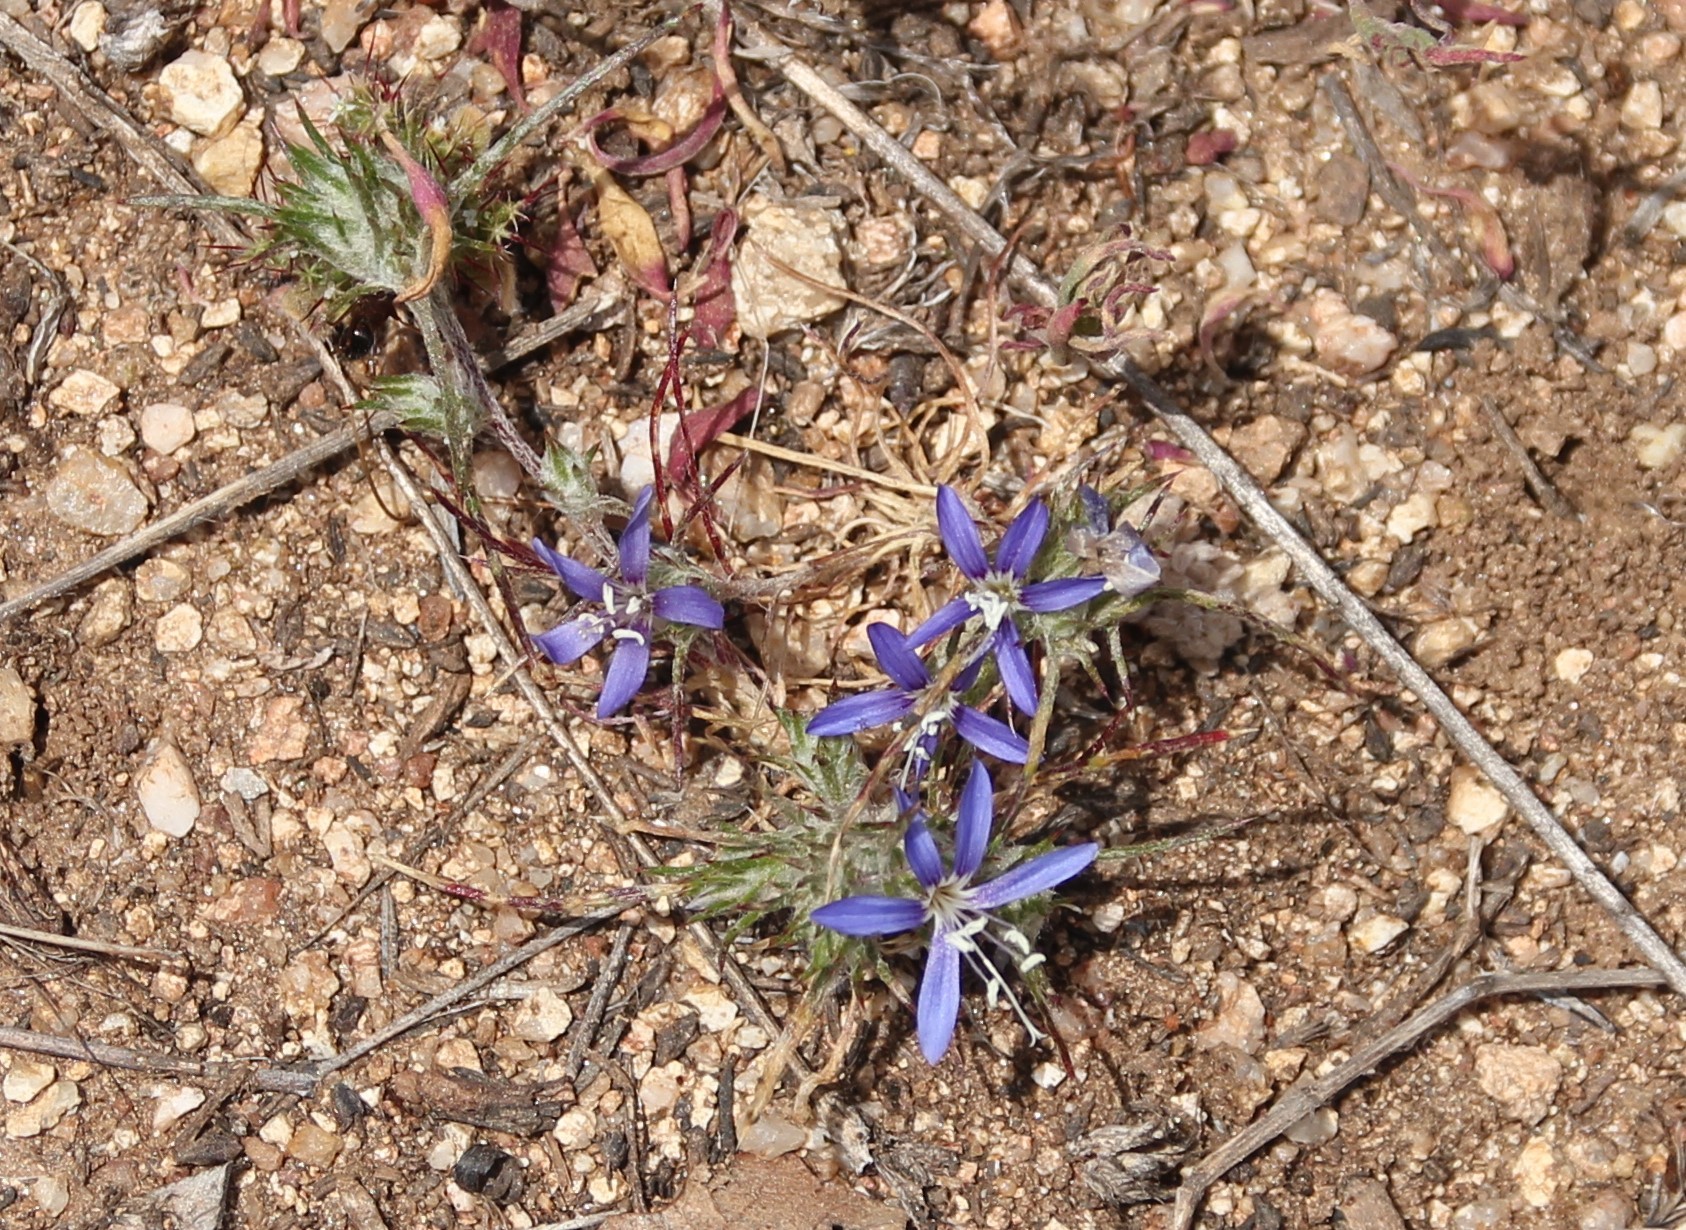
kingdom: Plantae
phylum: Tracheophyta
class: Magnoliopsida
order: Ericales
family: Polemoniaceae
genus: Eriastrum
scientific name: Eriastrum virgatum
